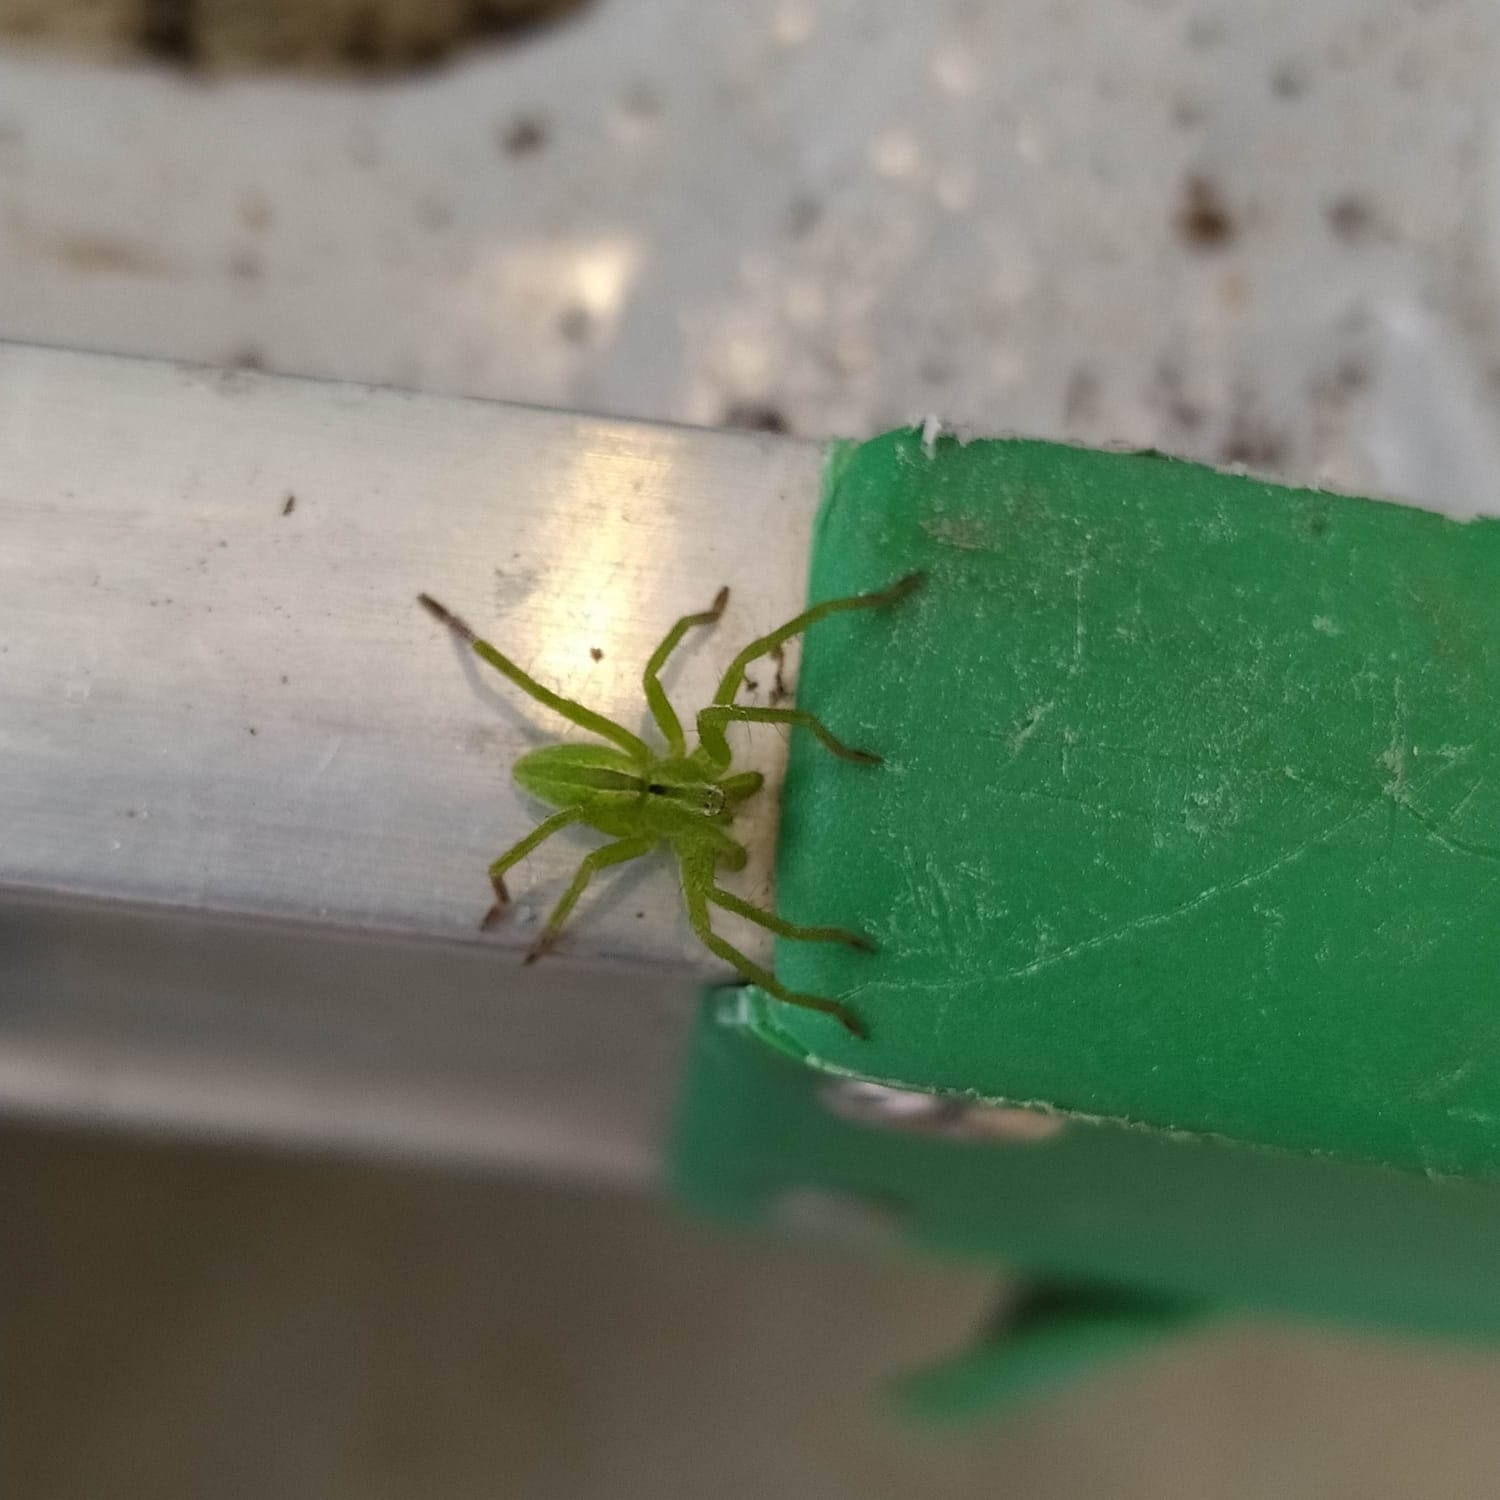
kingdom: Animalia
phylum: Arthropoda
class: Arachnida
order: Araneae
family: Sparassidae
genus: Micrommata
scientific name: Micrommata ligurina
